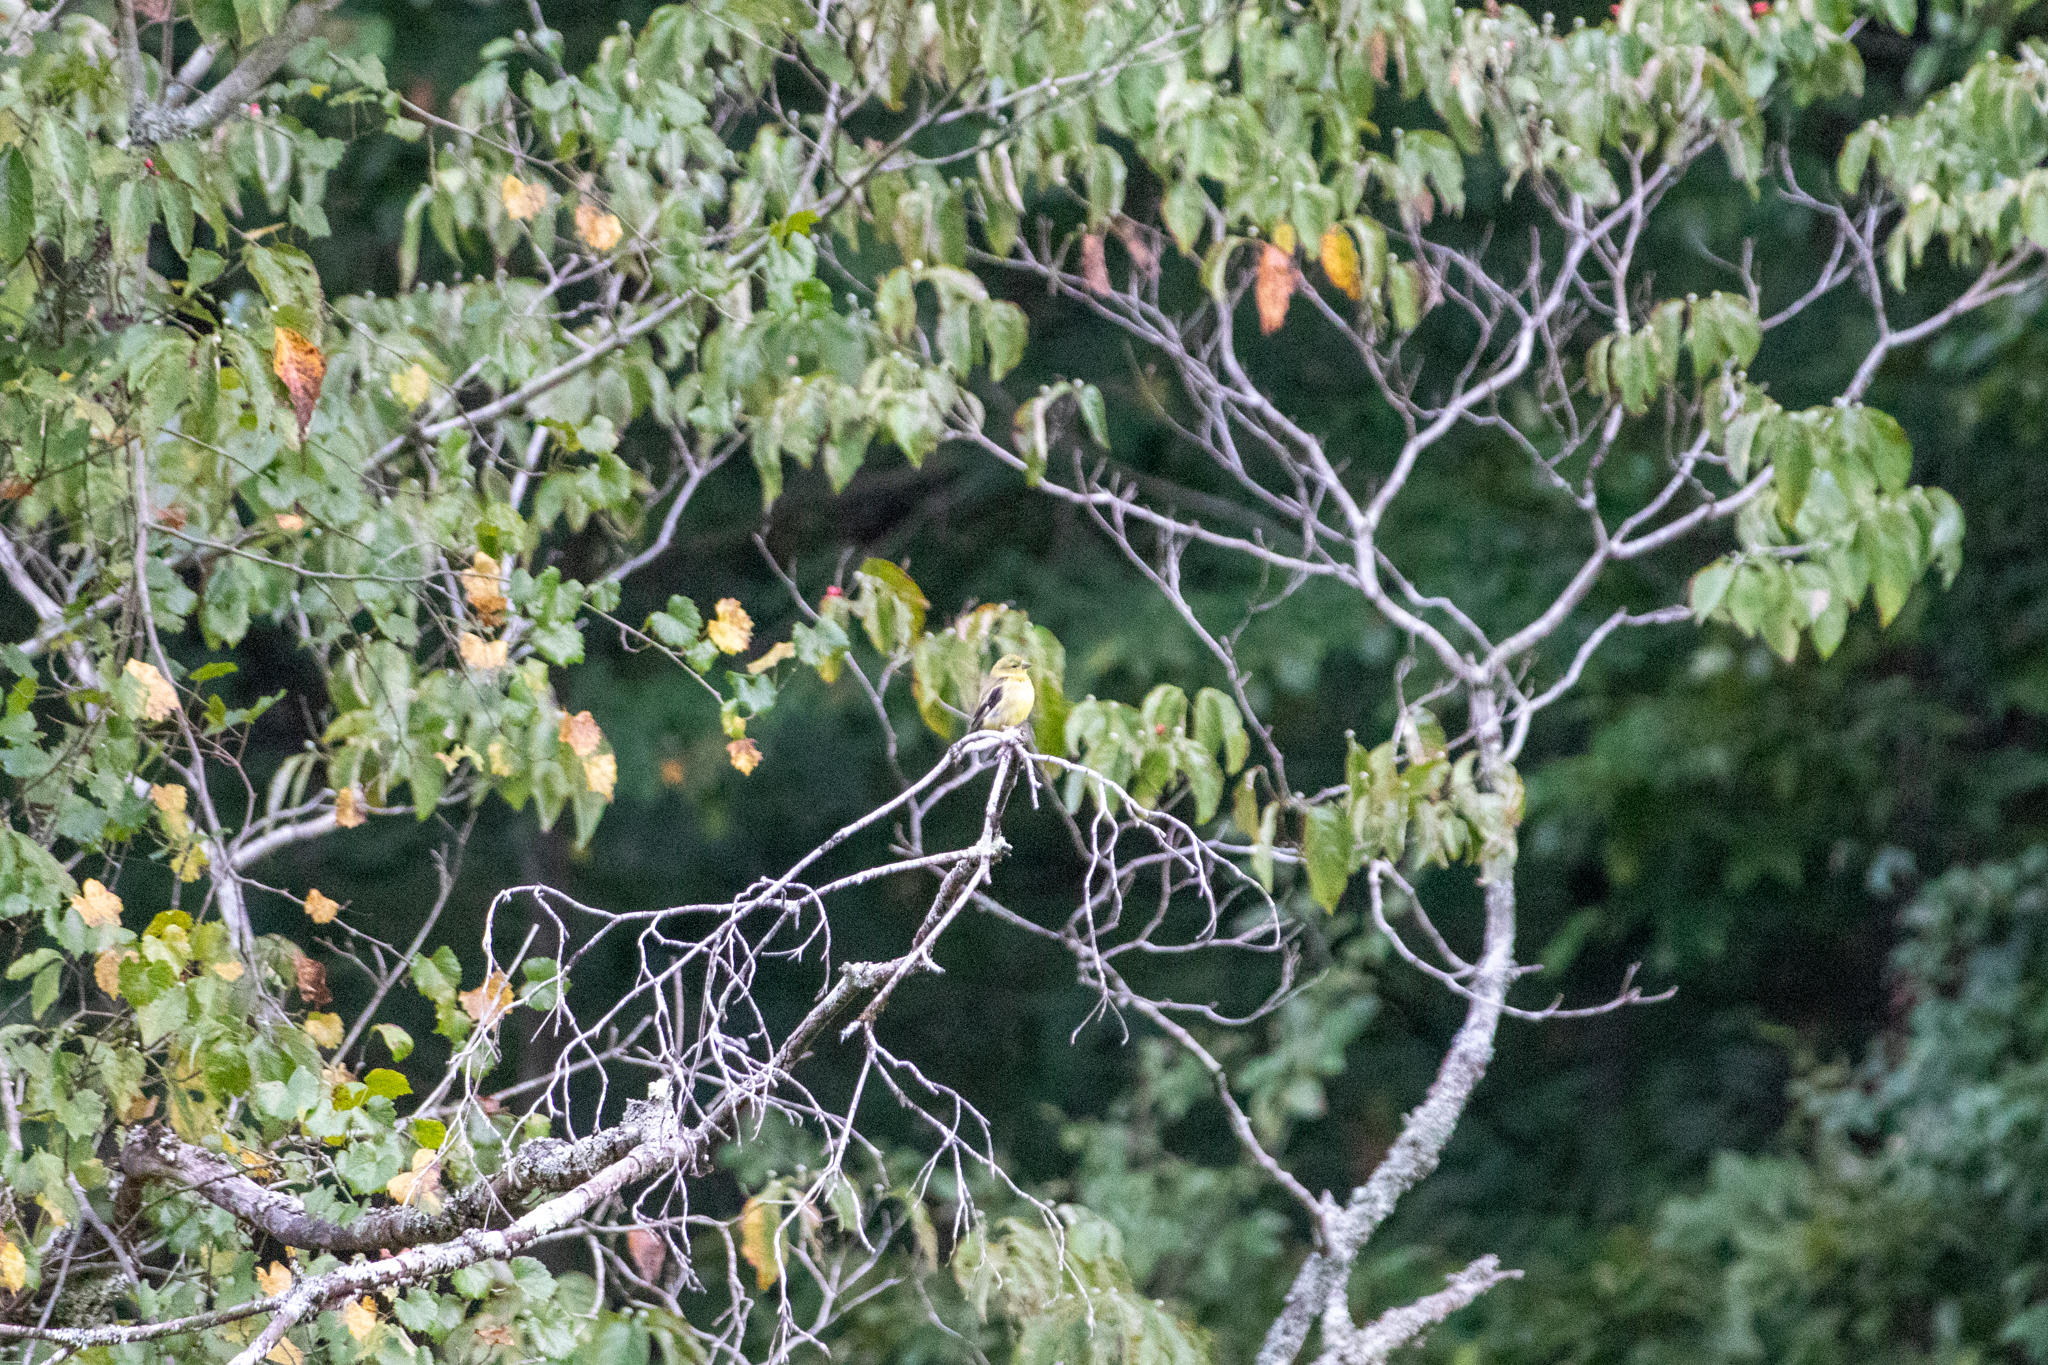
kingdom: Animalia
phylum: Chordata
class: Aves
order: Passeriformes
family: Fringillidae
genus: Spinus
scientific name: Spinus tristis
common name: American goldfinch
